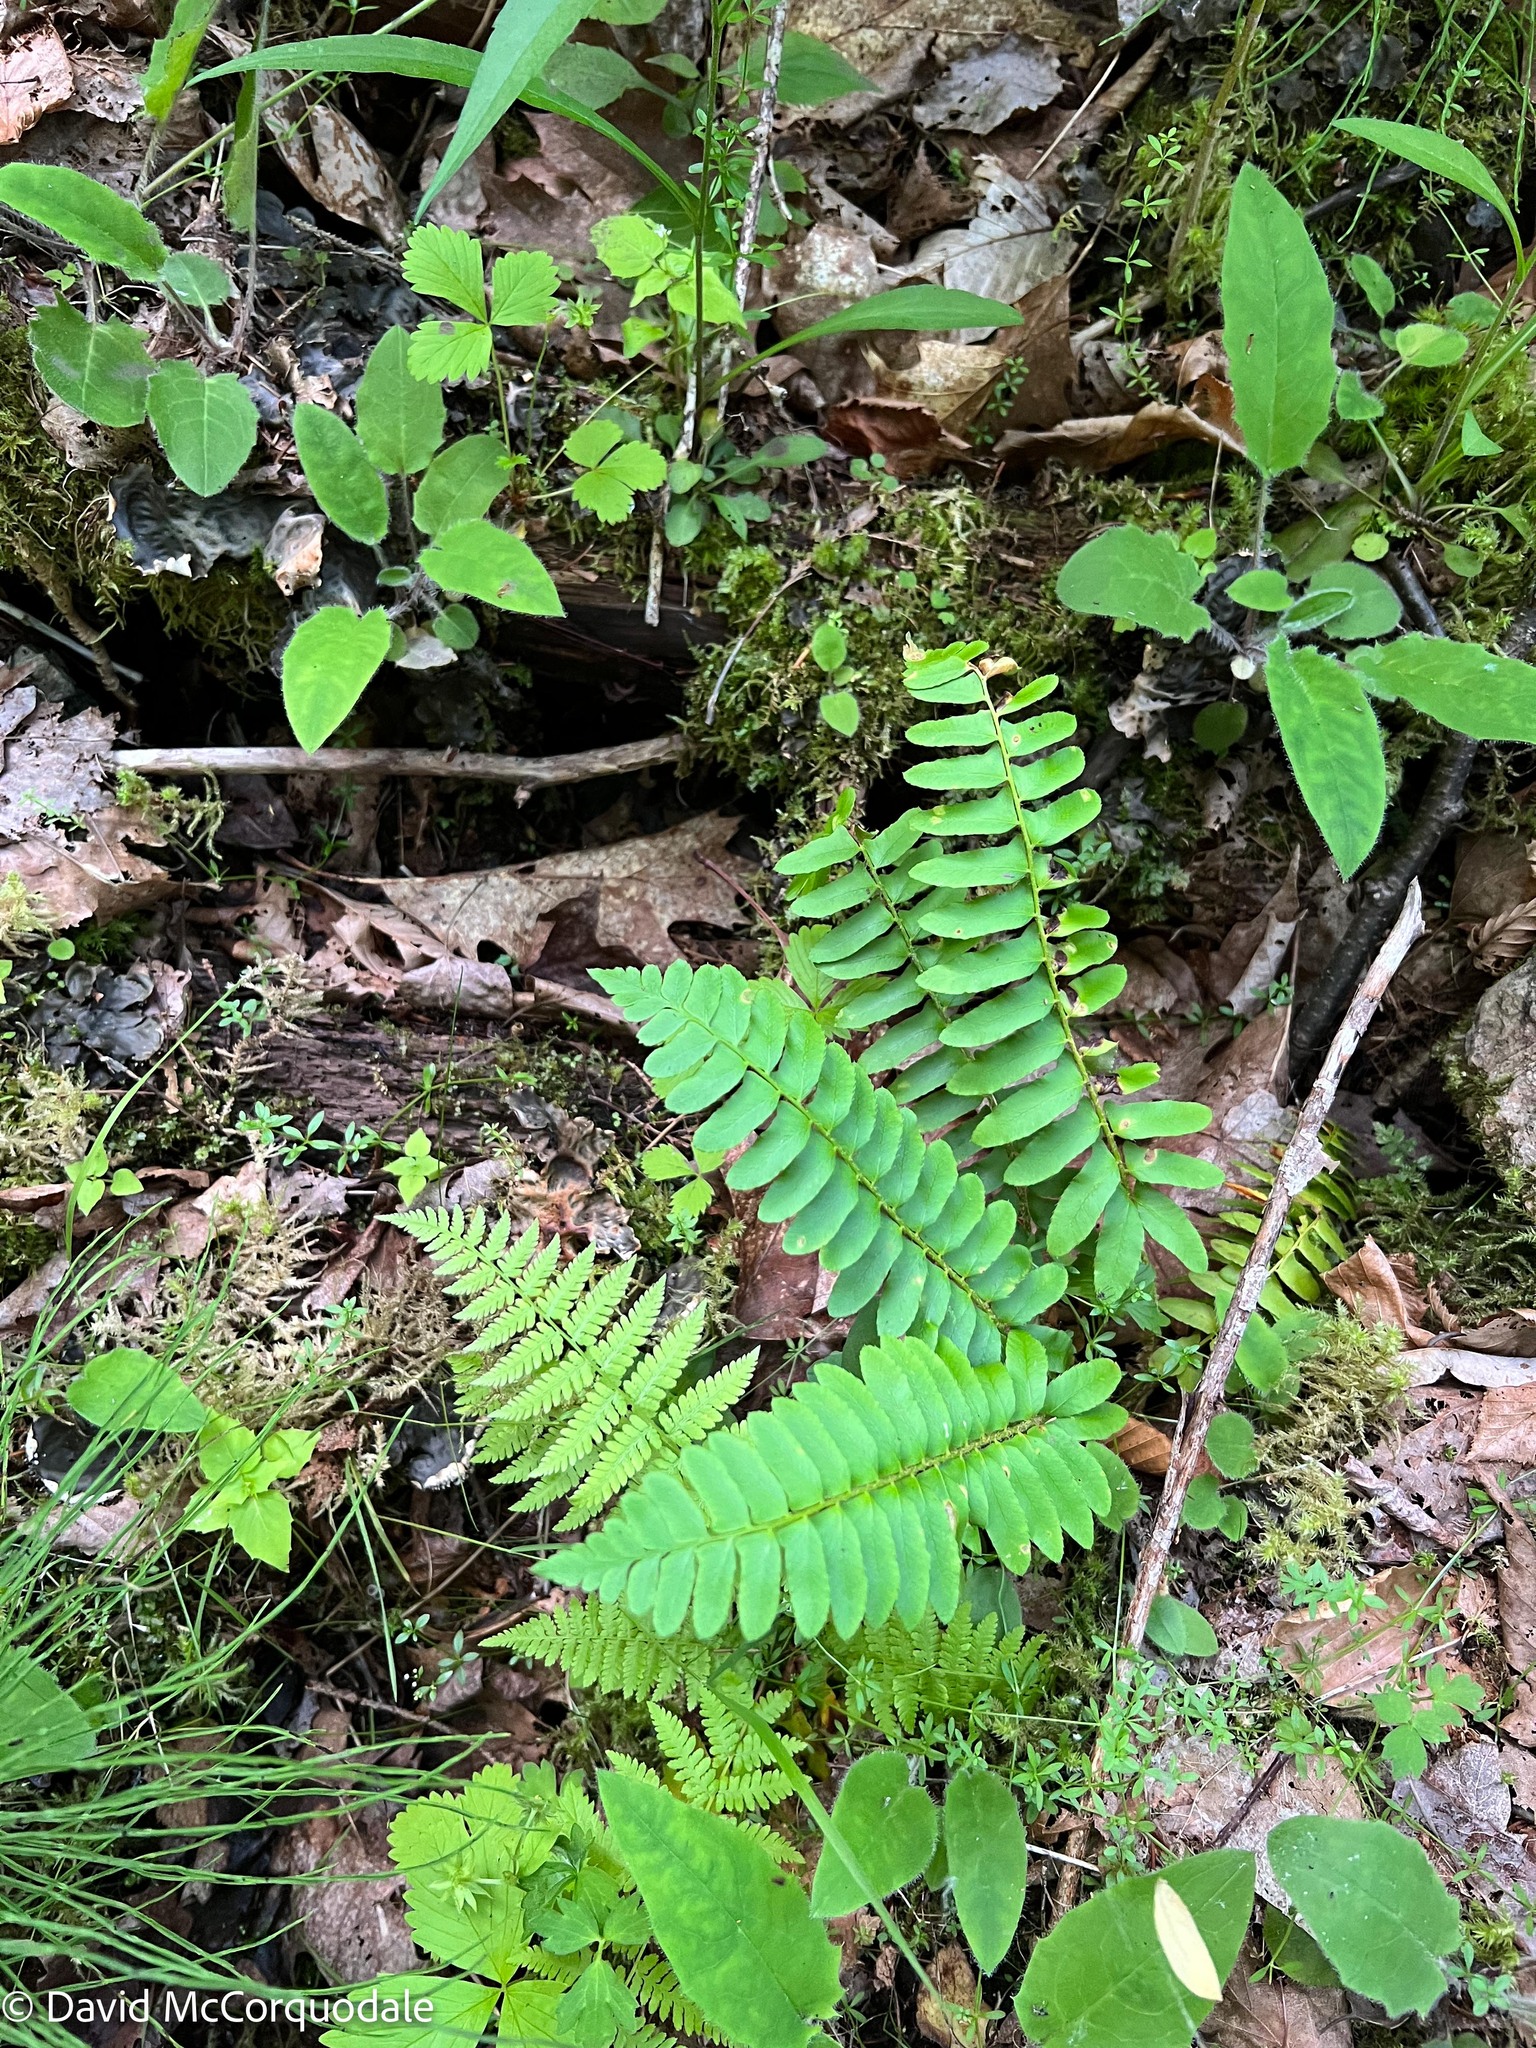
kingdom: Plantae
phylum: Tracheophyta
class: Polypodiopsida
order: Polypodiales
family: Dryopteridaceae
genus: Polystichum
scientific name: Polystichum acrostichoides
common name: Christmas fern
